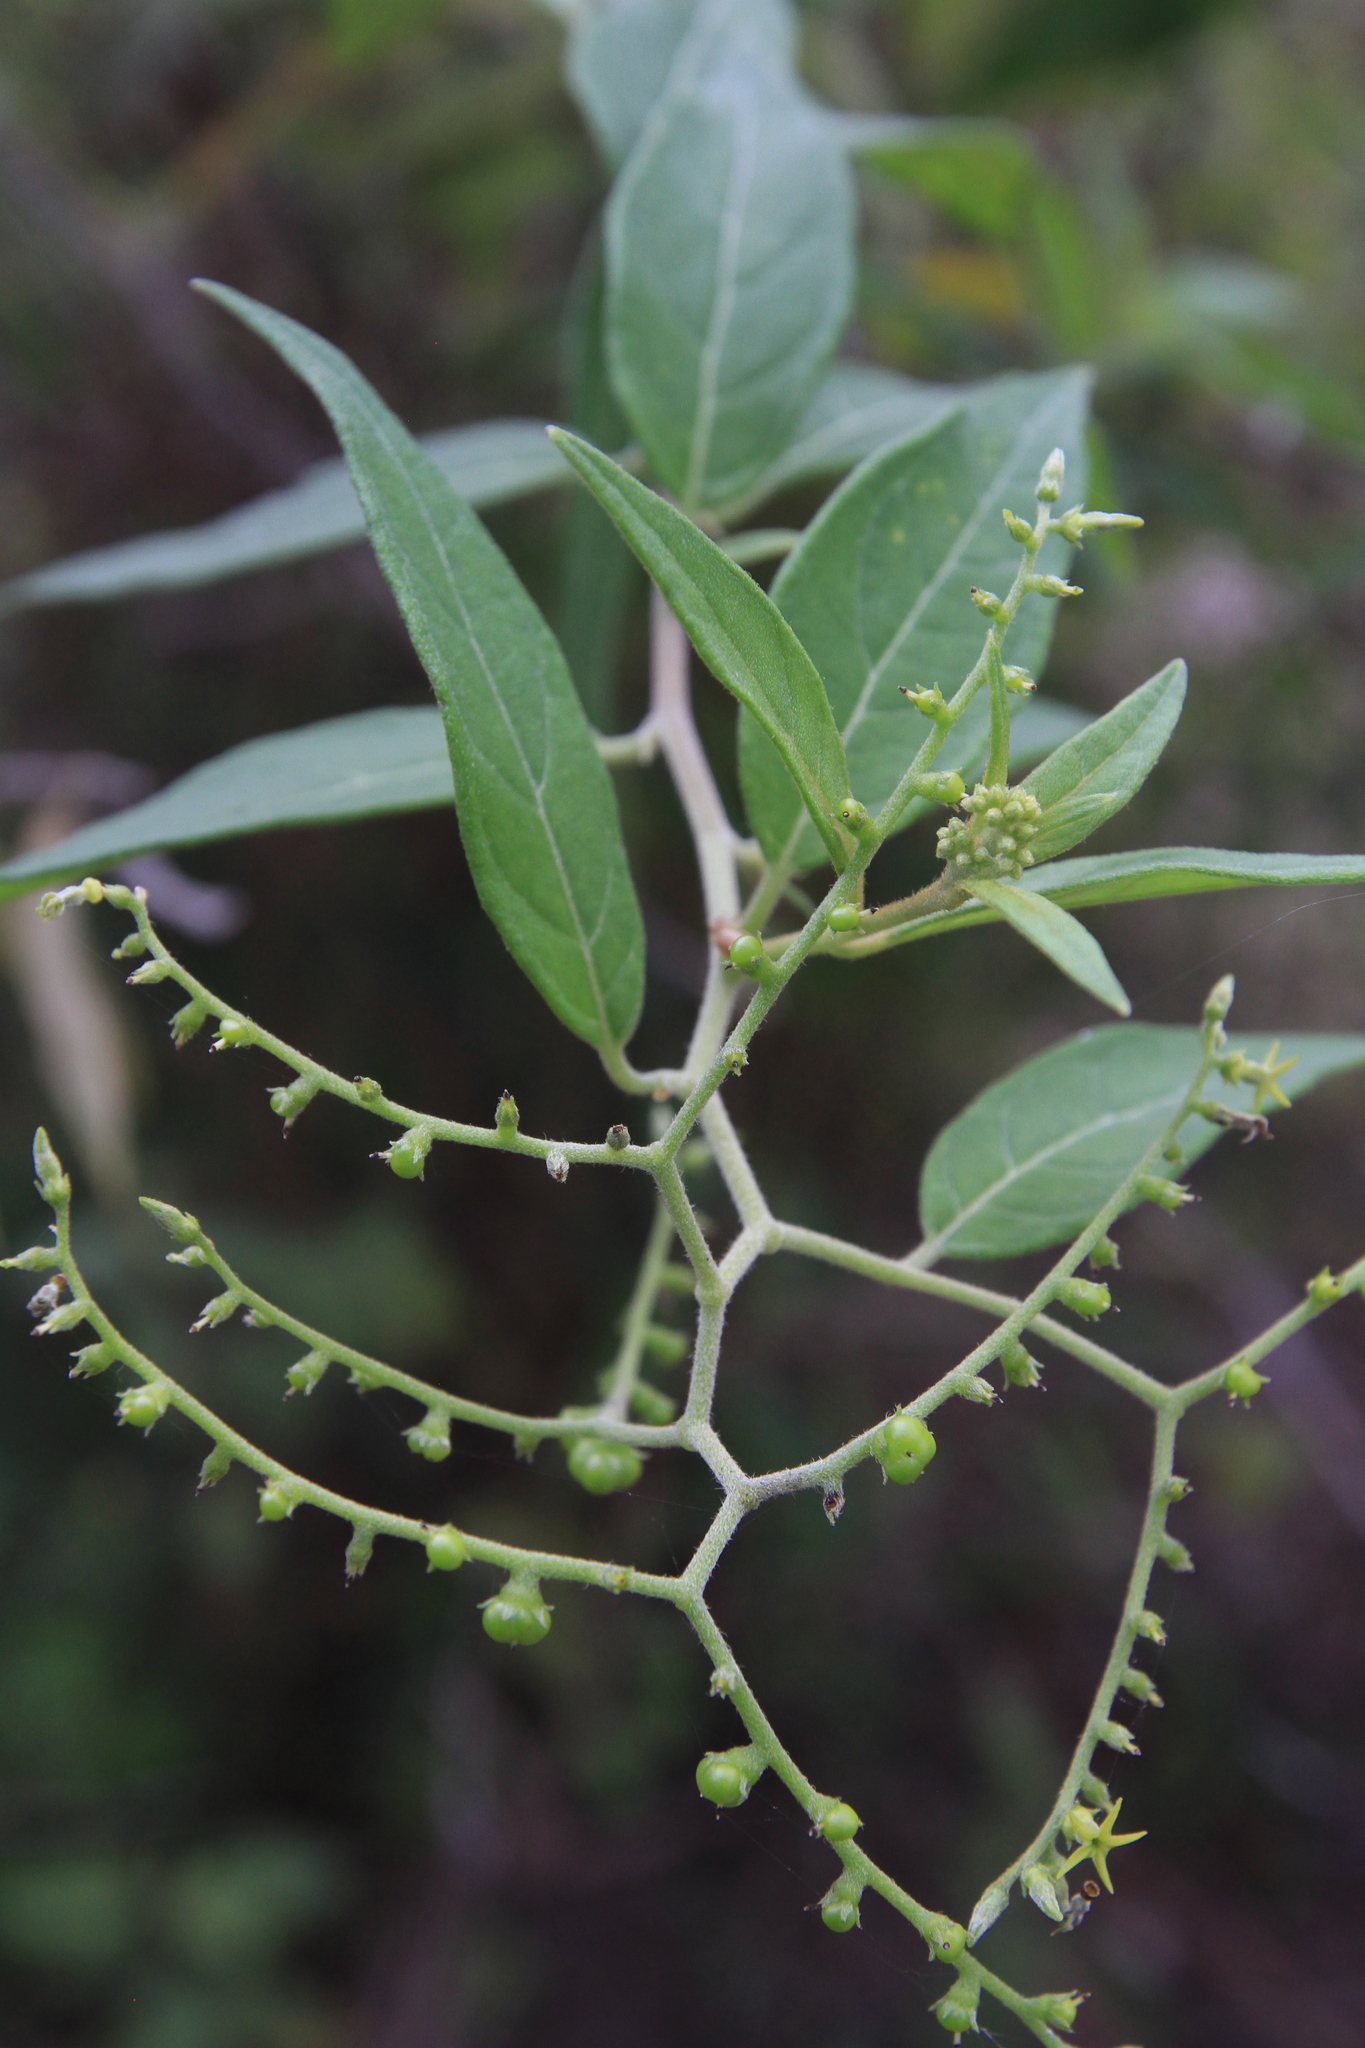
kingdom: Plantae
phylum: Tracheophyta
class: Magnoliopsida
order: Boraginales
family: Heliotropiaceae
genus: Myriopus
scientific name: Myriopus volubilis
